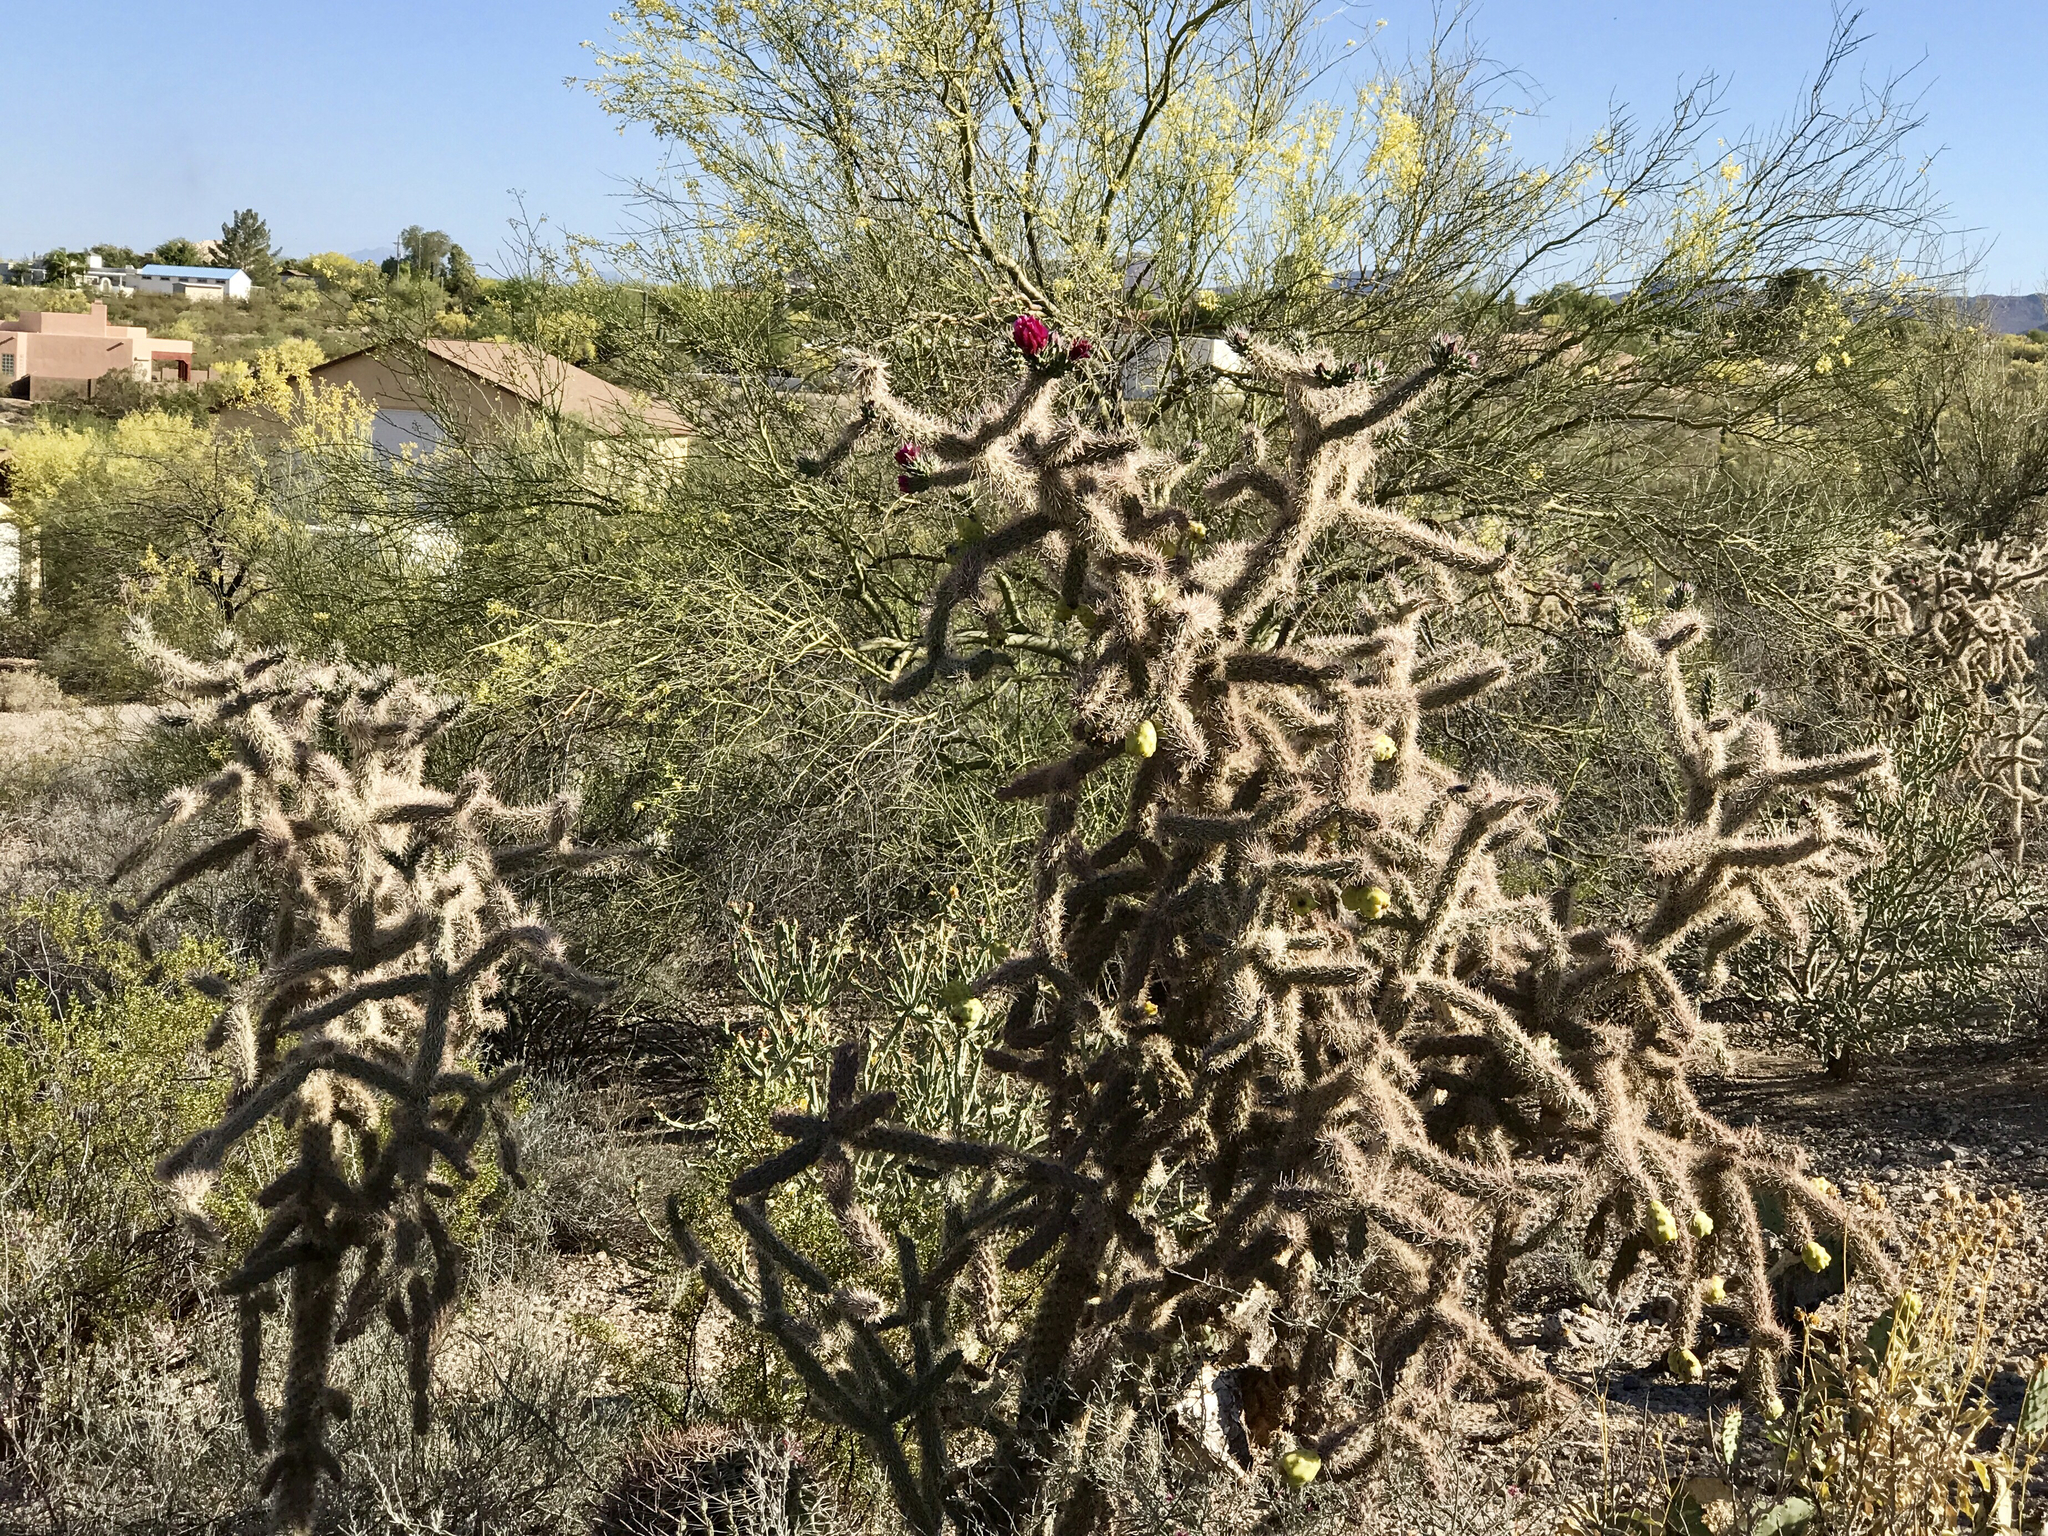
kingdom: Plantae
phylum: Tracheophyta
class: Magnoliopsida
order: Caryophyllales
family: Cactaceae
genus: Cylindropuntia
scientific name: Cylindropuntia imbricata
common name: Candelabrum cactus
